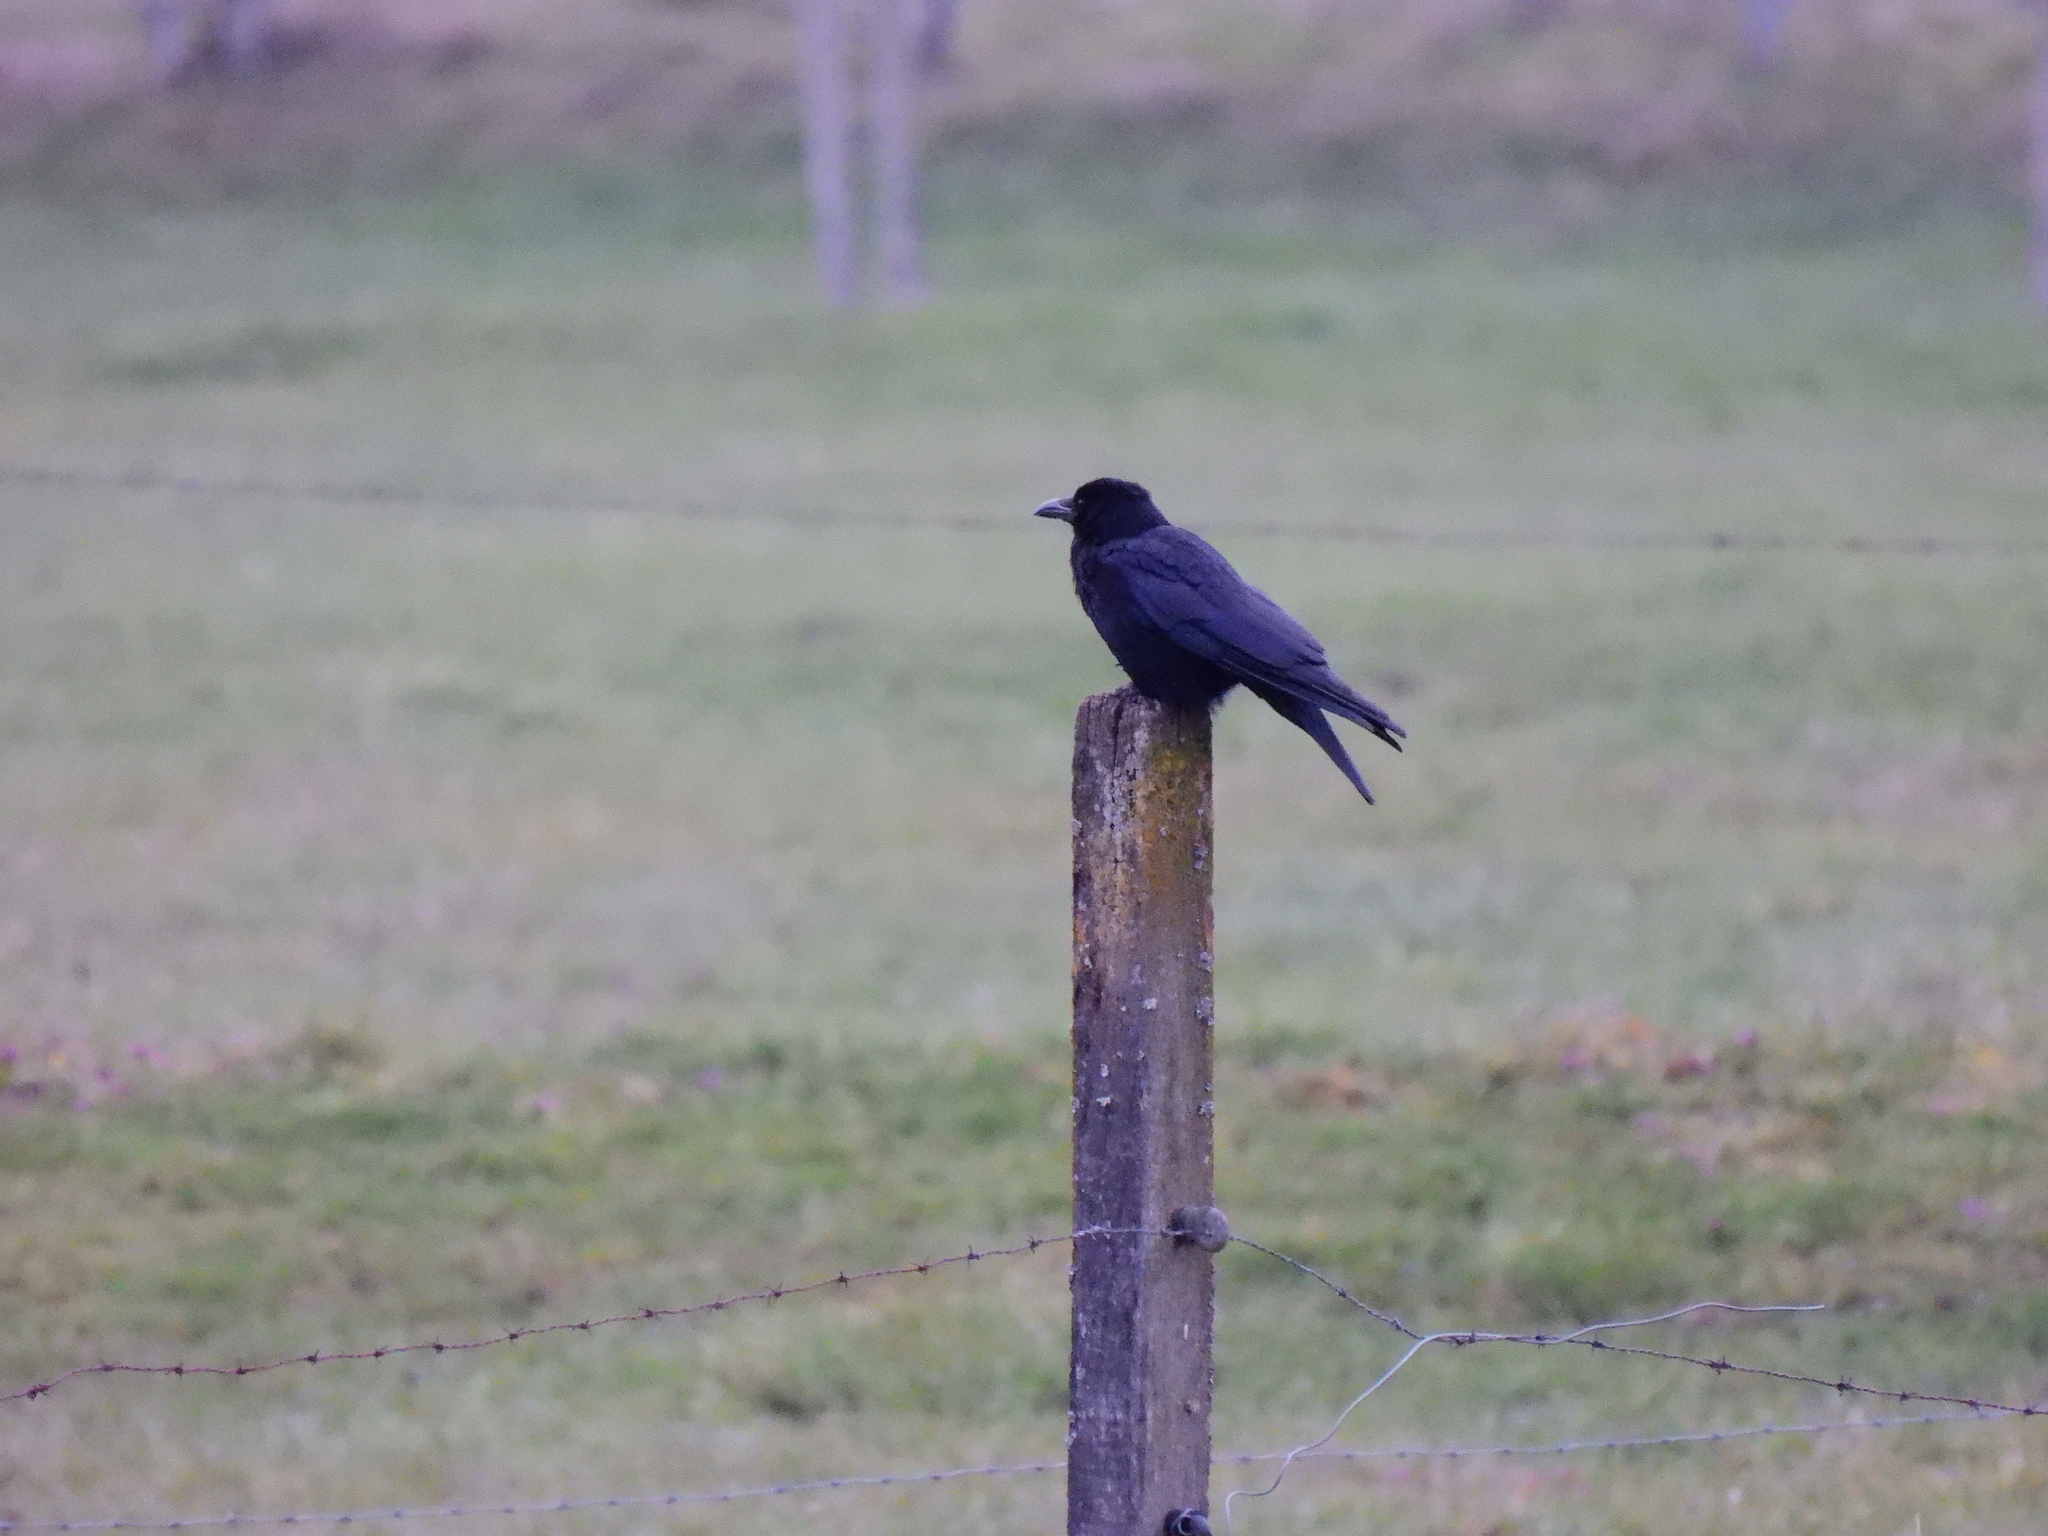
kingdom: Animalia
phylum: Chordata
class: Aves
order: Passeriformes
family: Corvidae
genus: Corvus
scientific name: Corvus corone
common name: Carrion crow
